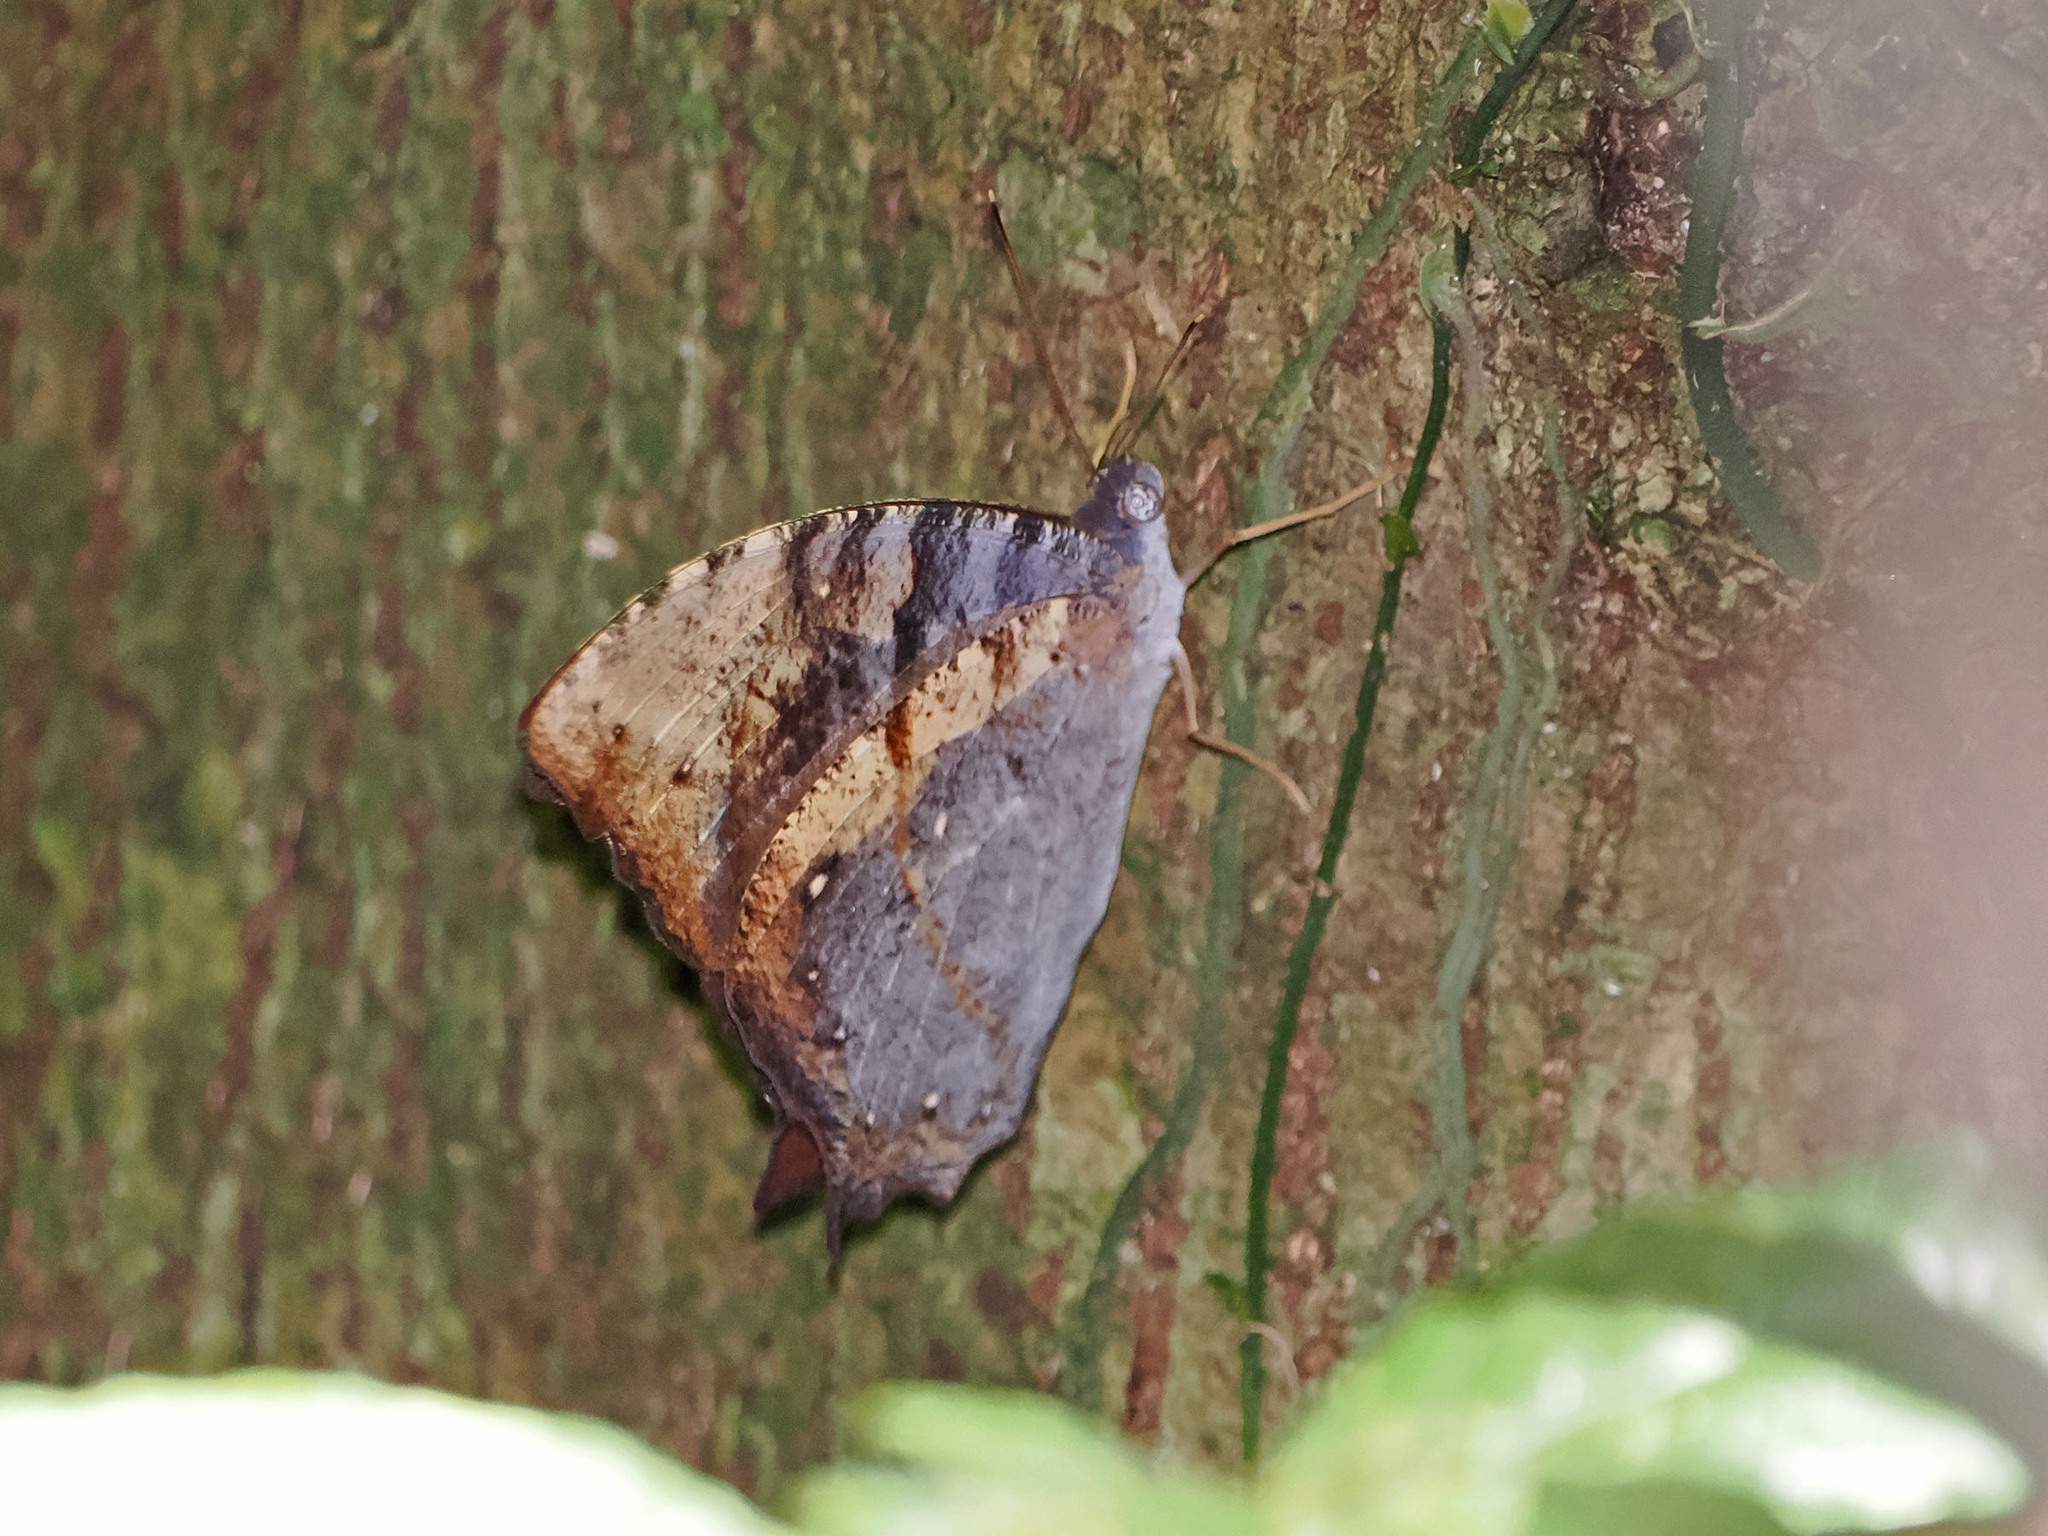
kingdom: Animalia
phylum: Arthropoda
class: Insecta
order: Lepidoptera
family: Nymphalidae
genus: Melanitis
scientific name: Melanitis atrax
